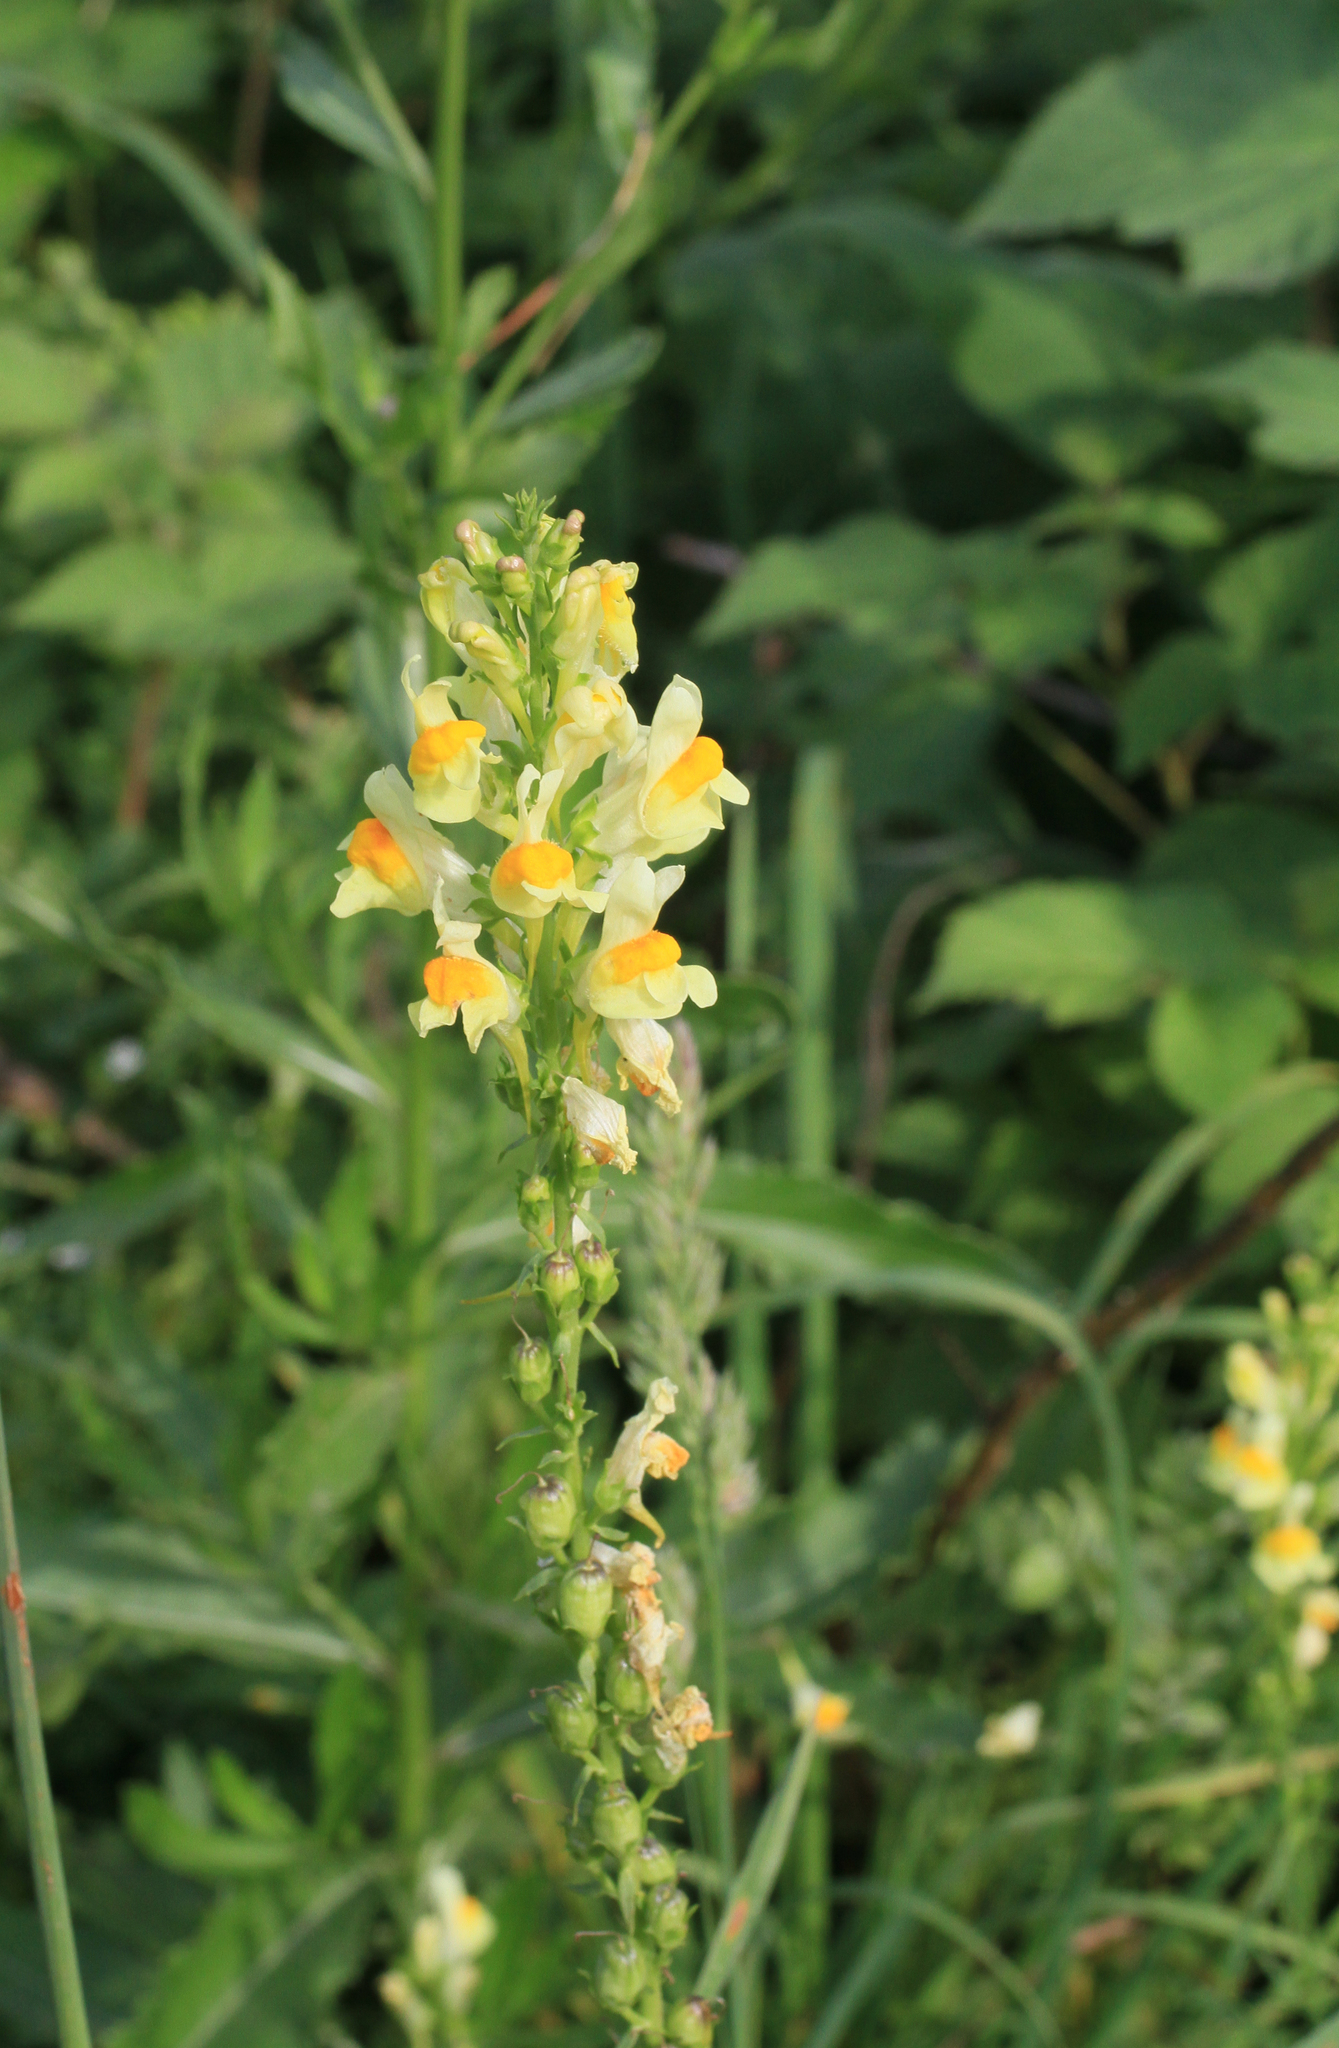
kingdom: Plantae
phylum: Tracheophyta
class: Magnoliopsida
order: Lamiales
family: Plantaginaceae
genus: Linaria
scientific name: Linaria vulgaris
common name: Butter and eggs
